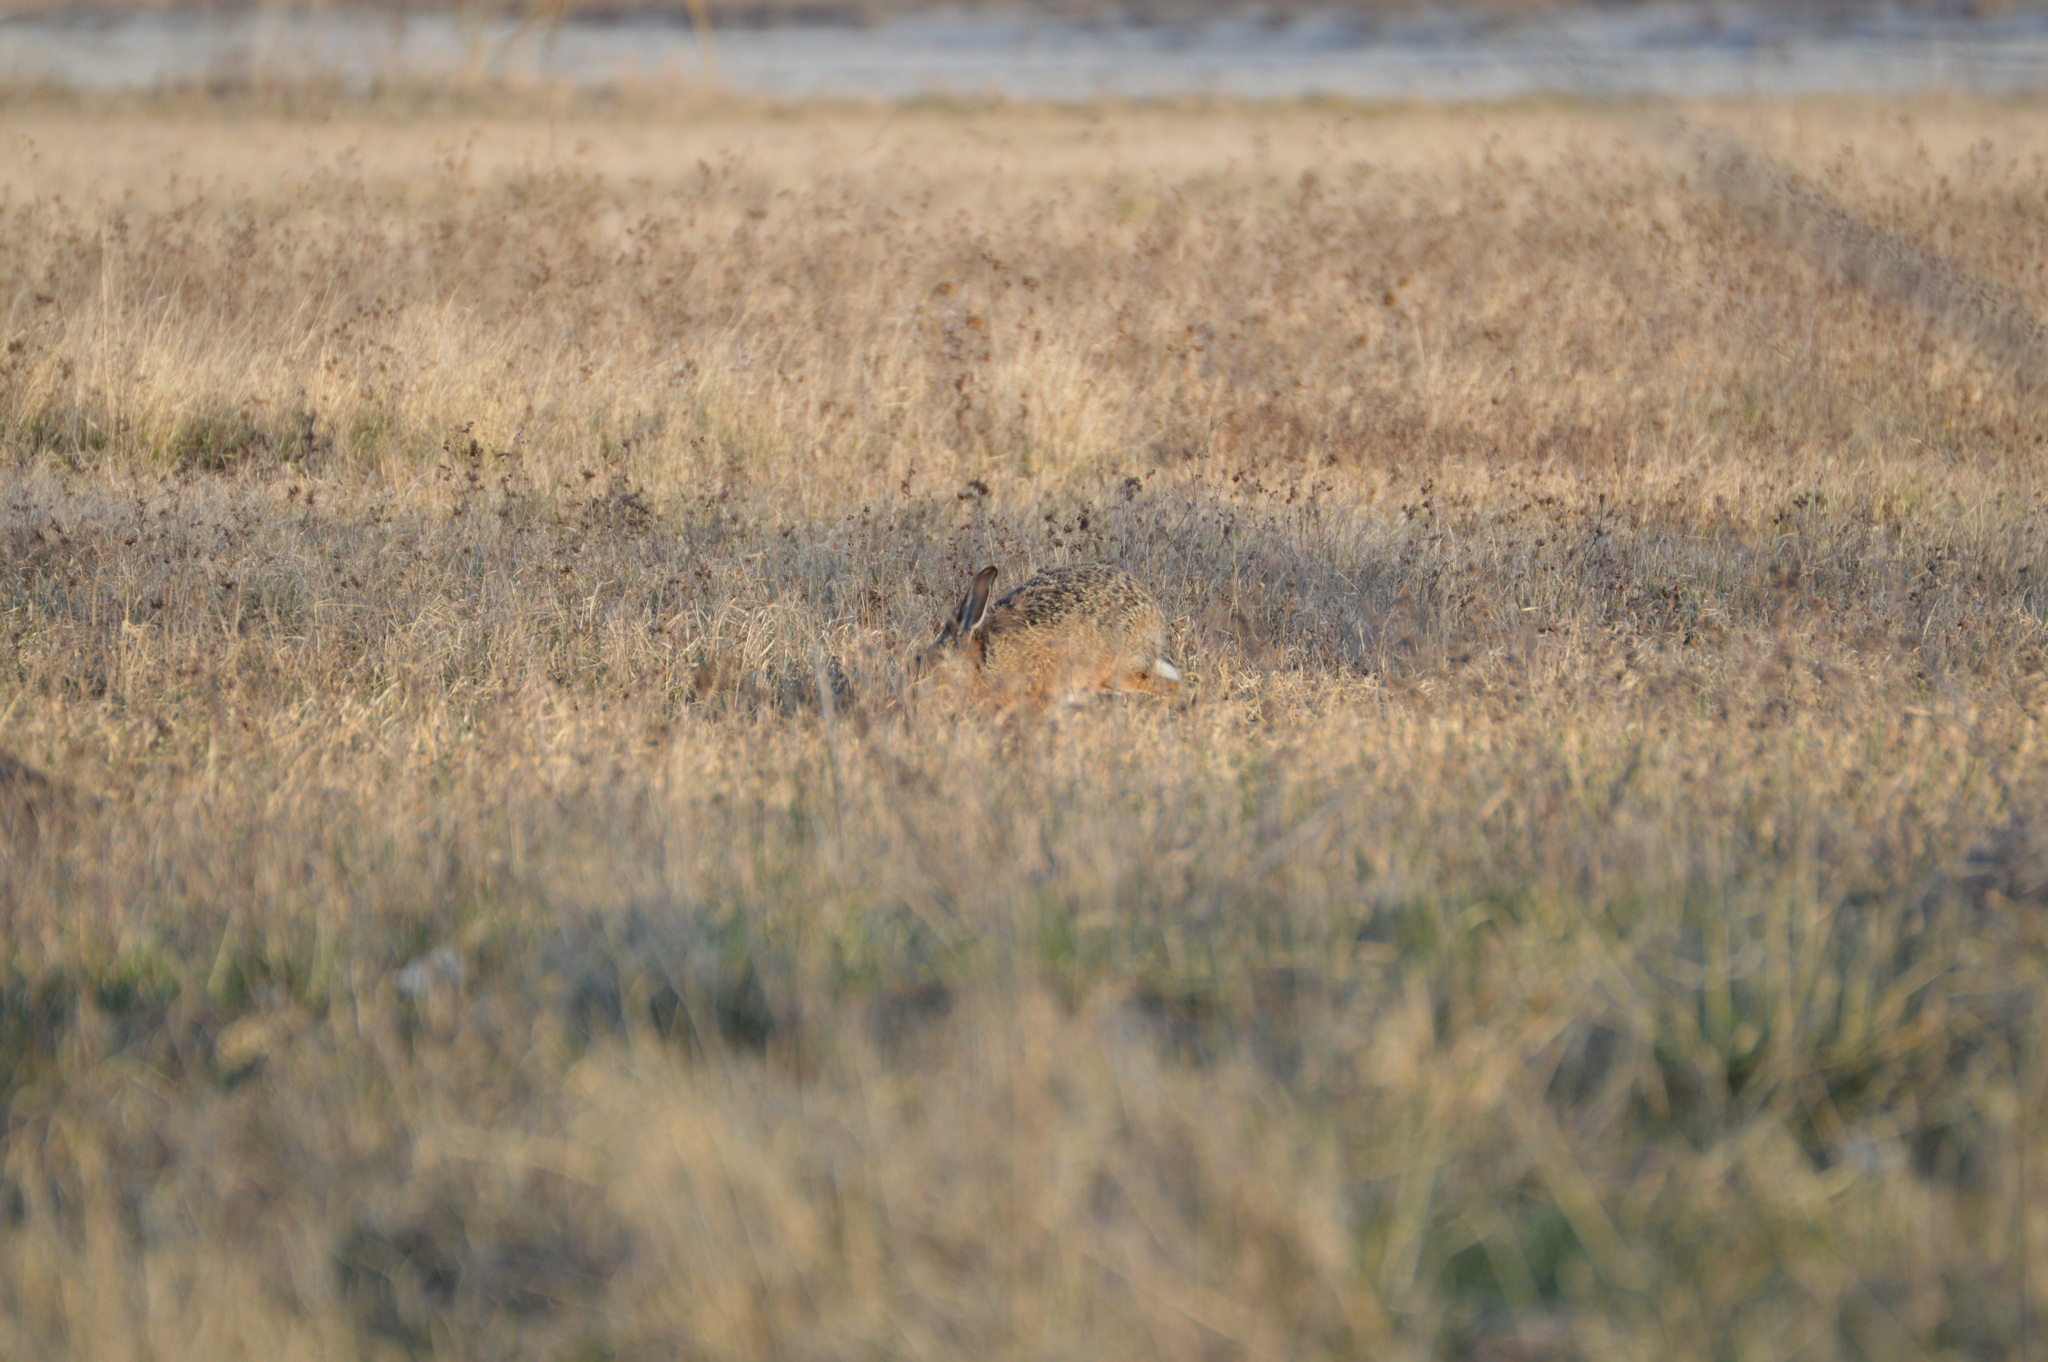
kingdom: Animalia
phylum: Chordata
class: Mammalia
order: Lagomorpha
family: Leporidae
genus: Lepus
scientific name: Lepus europaeus
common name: European hare
